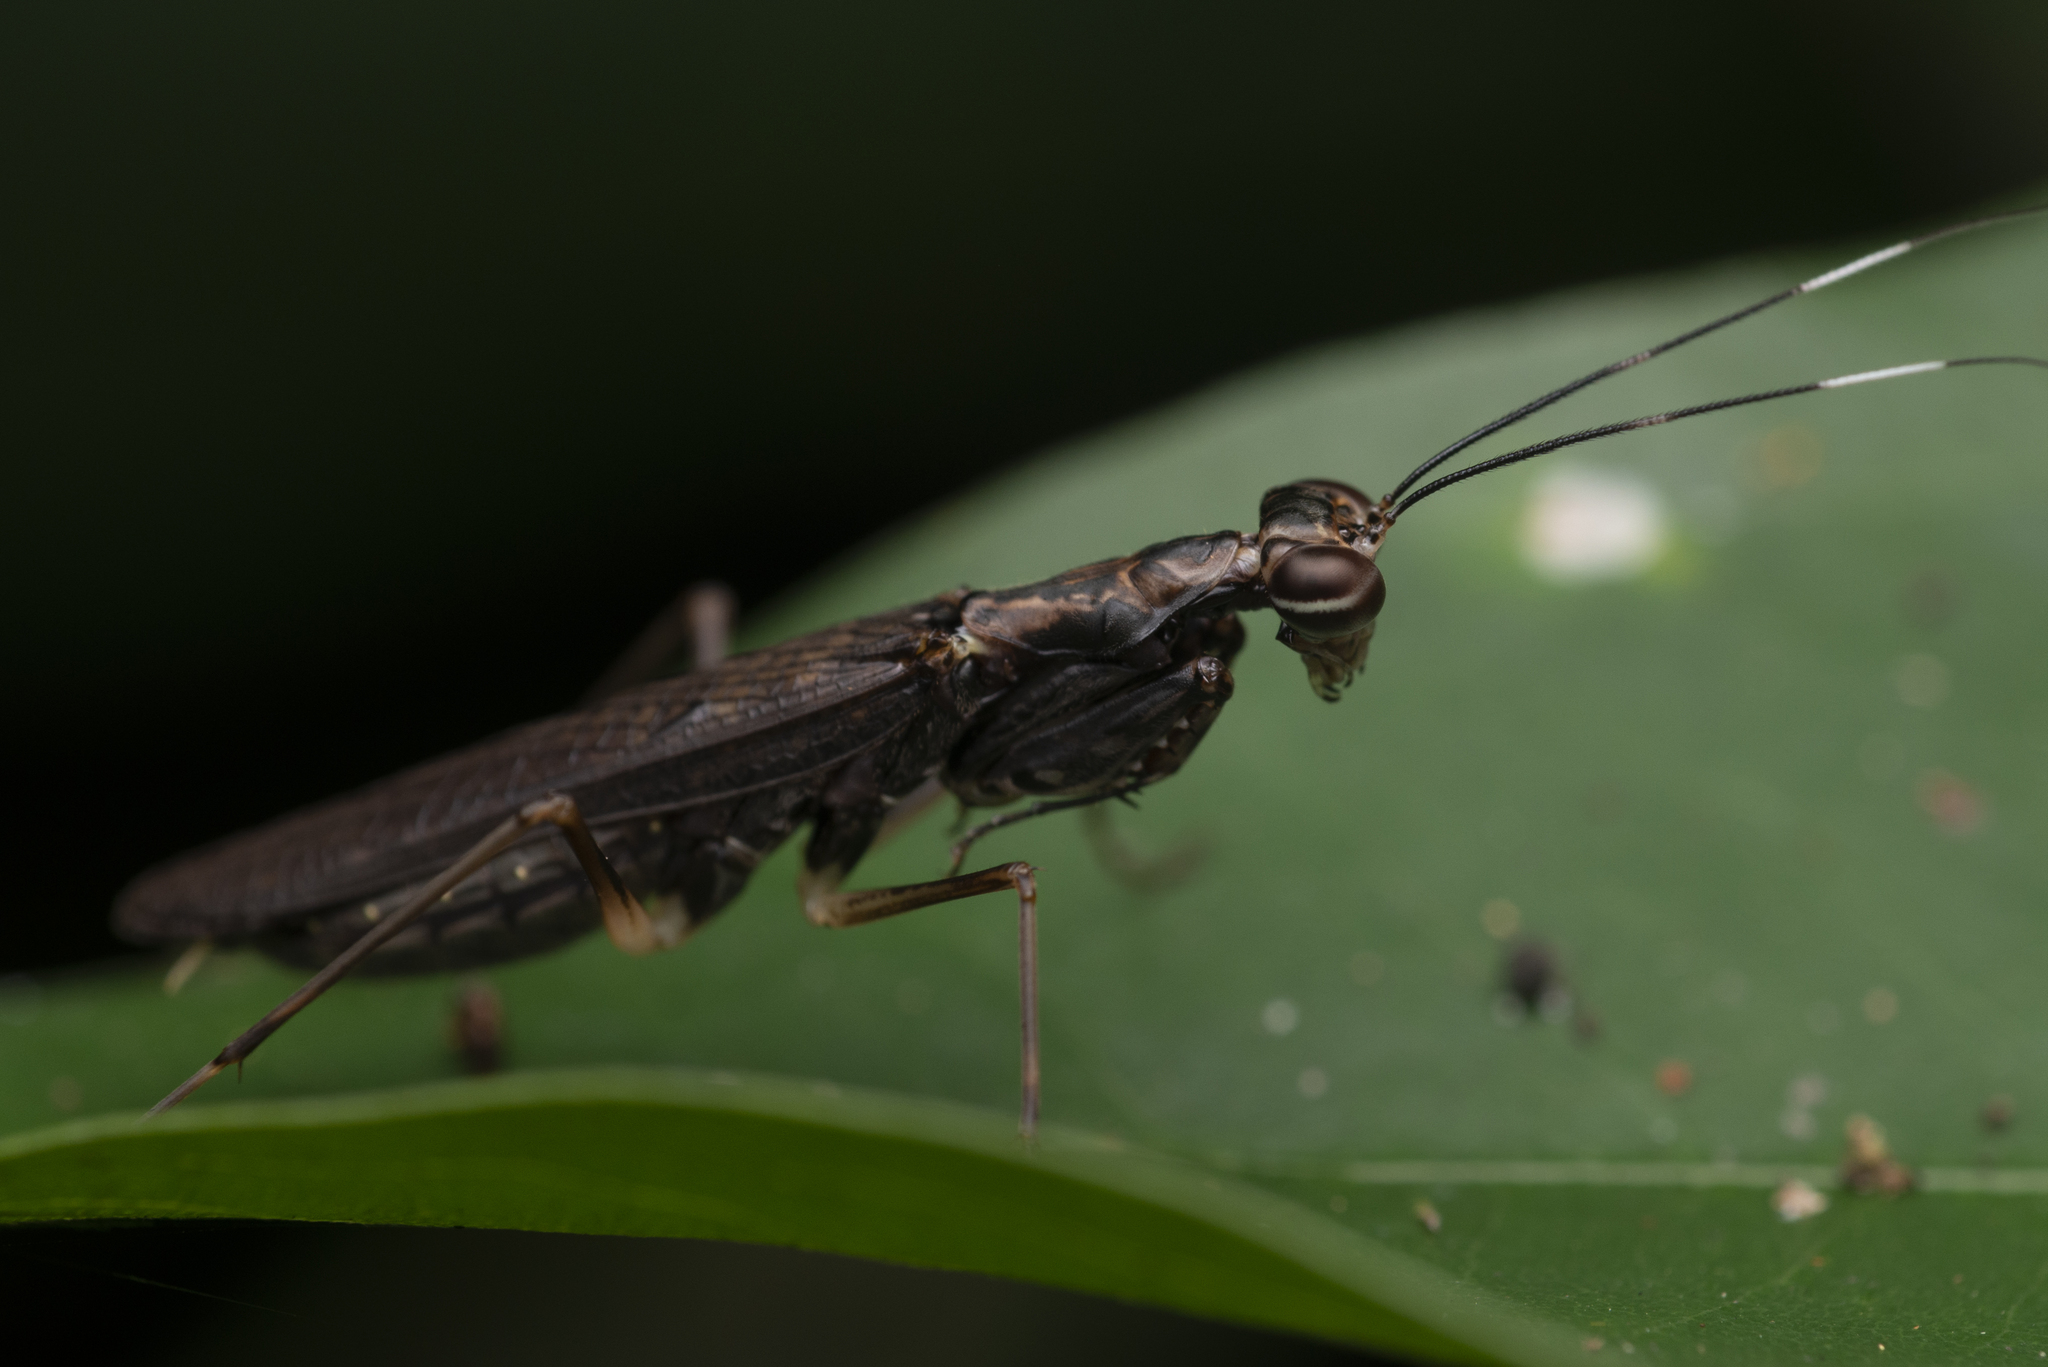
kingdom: Animalia
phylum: Arthropoda
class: Insecta
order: Mantodea
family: Gonypetidae
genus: Spilomantis
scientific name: Spilomantis occipitalis
